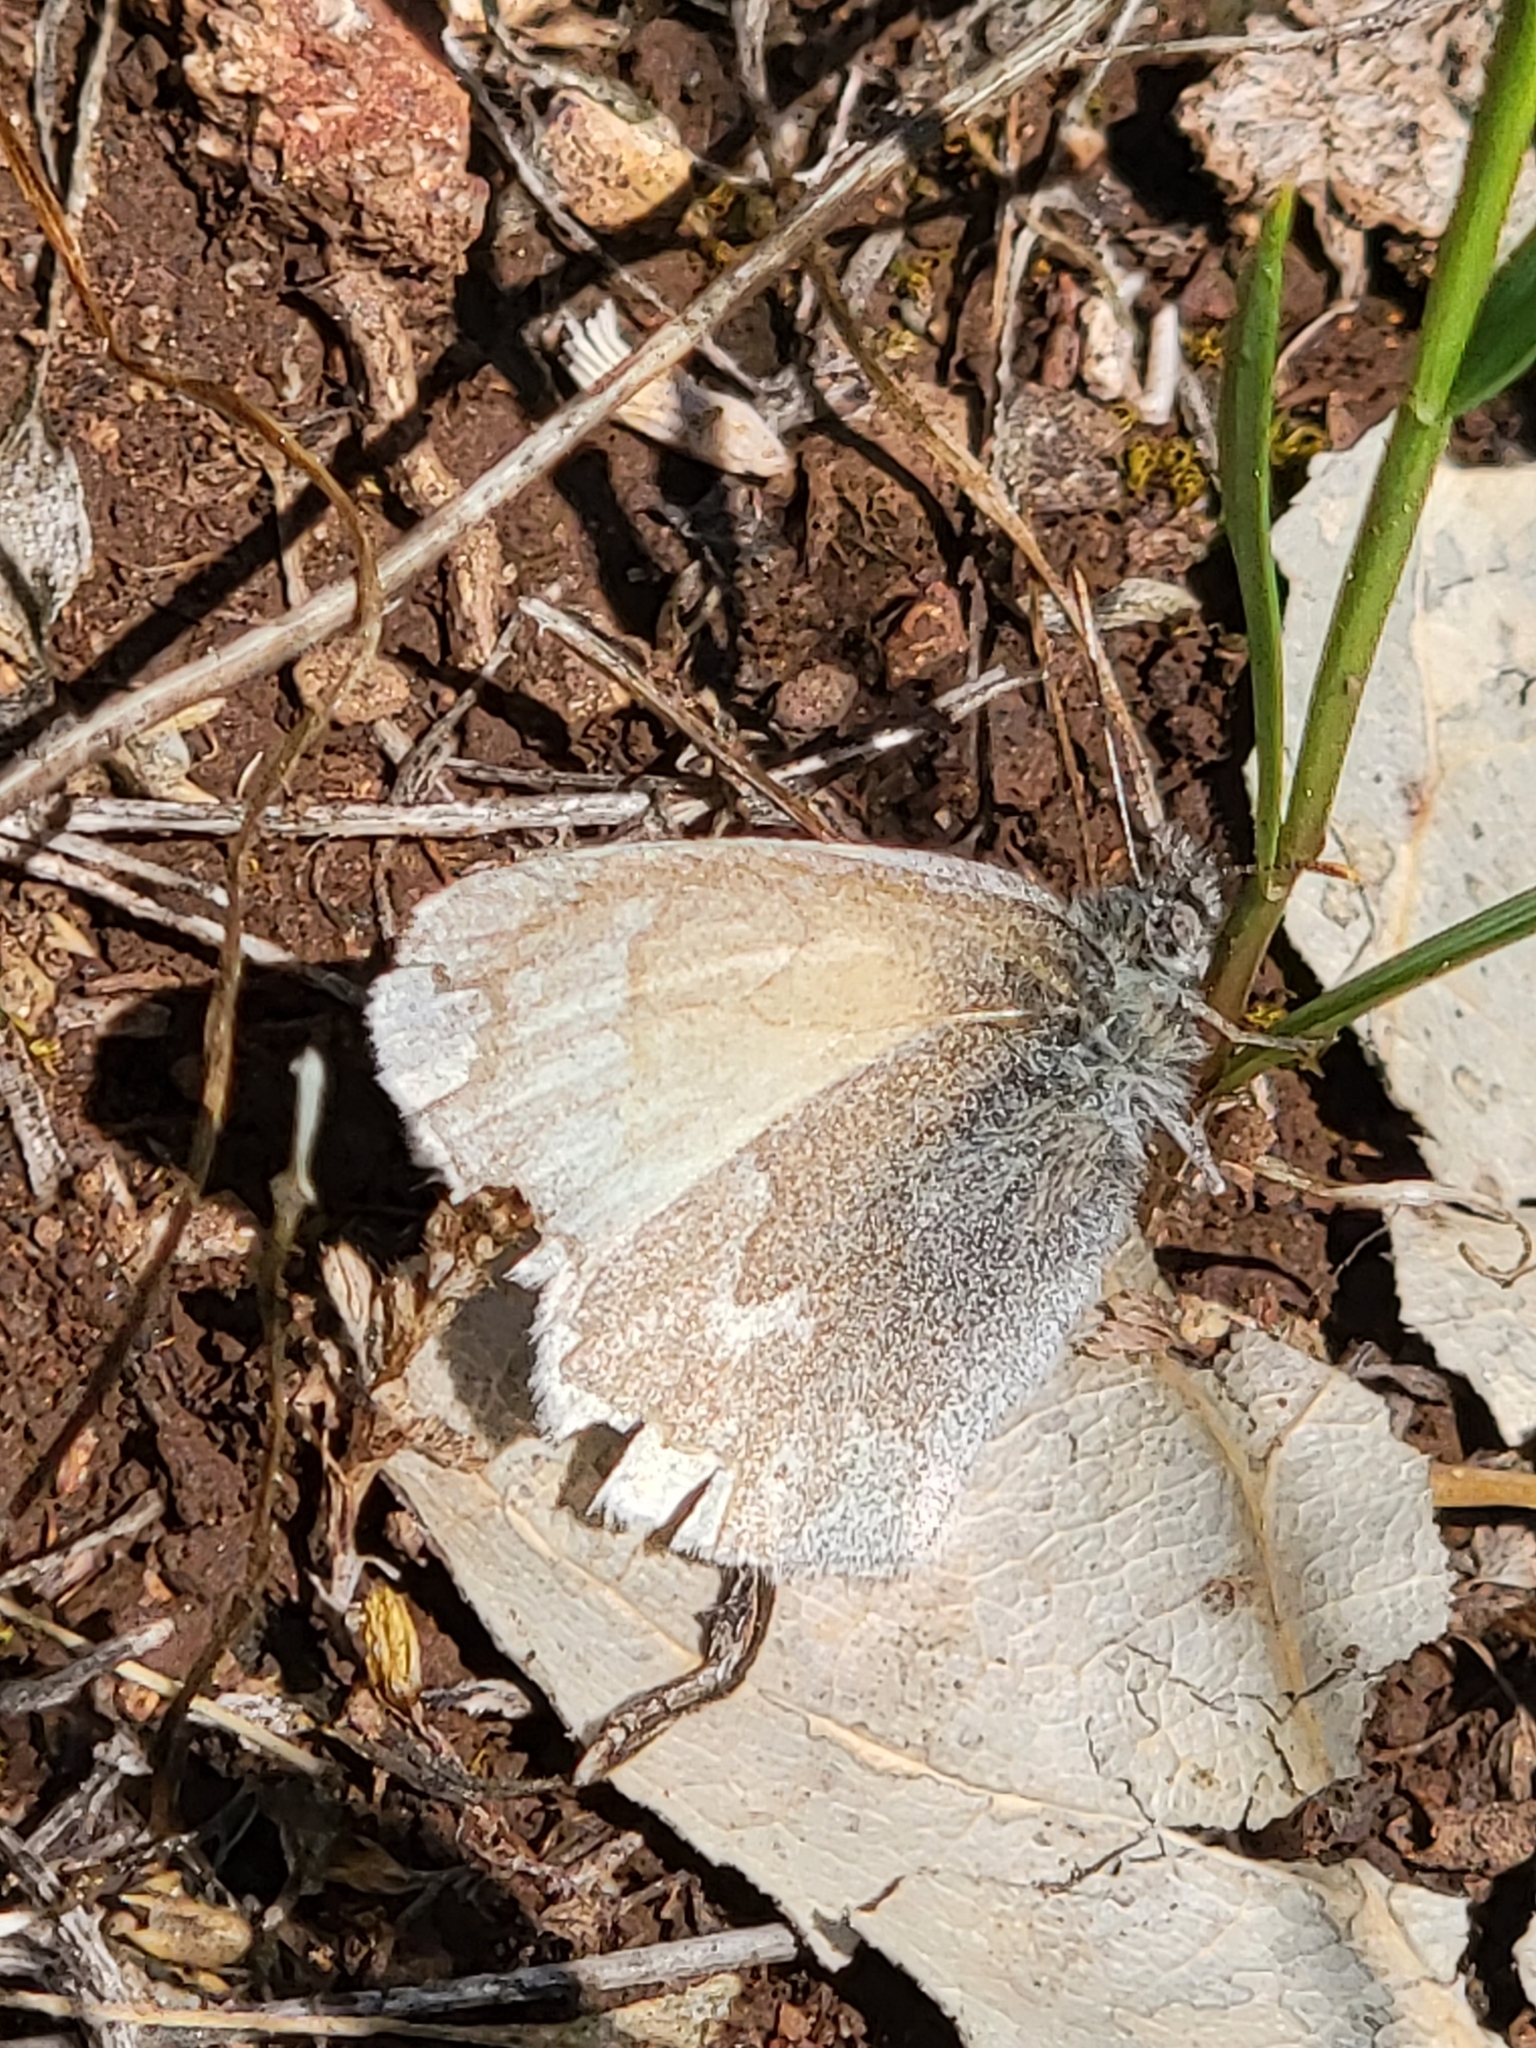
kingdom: Animalia
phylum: Arthropoda
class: Insecta
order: Lepidoptera
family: Nymphalidae
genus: Coenonympha
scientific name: Coenonympha california
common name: Common ringlet
